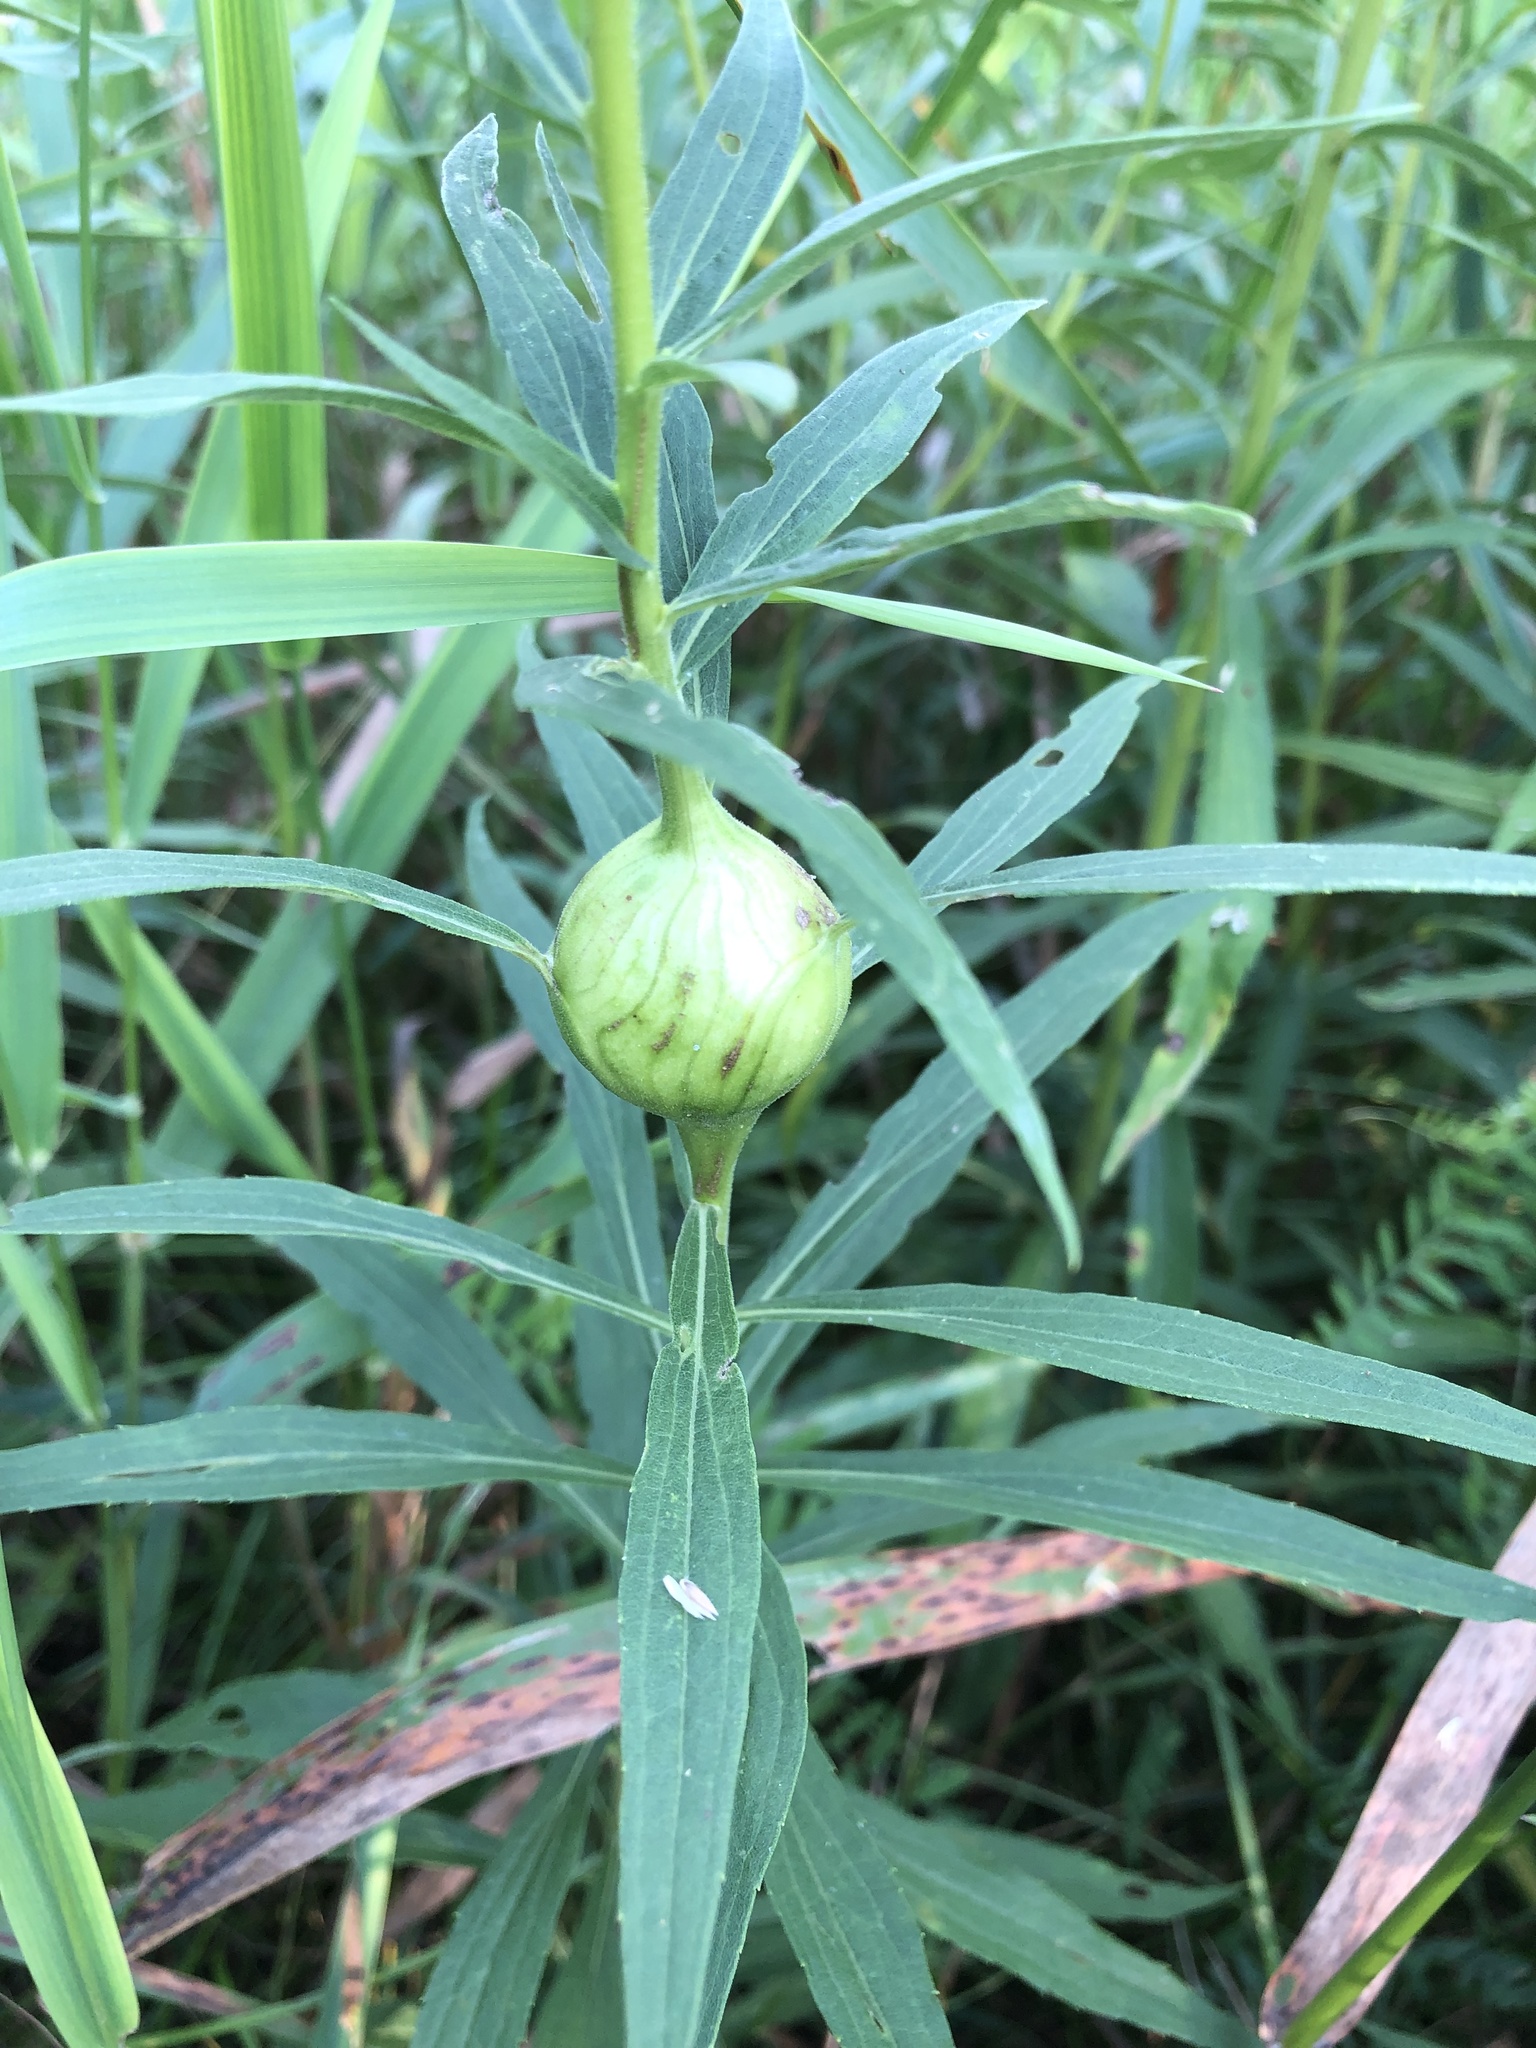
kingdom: Animalia
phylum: Arthropoda
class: Insecta
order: Diptera
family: Tephritidae
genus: Eurosta
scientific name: Eurosta solidaginis
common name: Goldenrod gall fly
